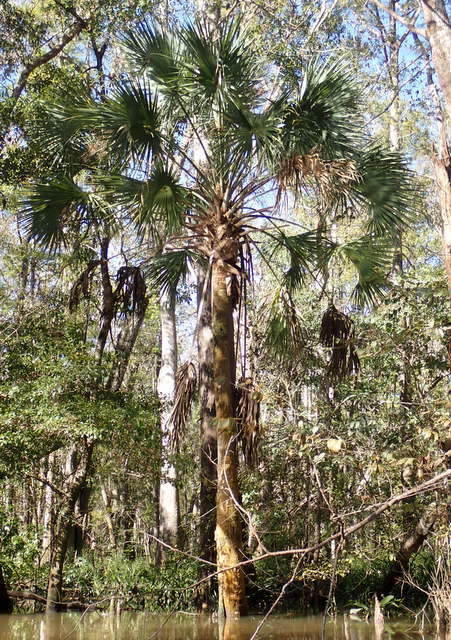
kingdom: Plantae
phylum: Tracheophyta
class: Liliopsida
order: Arecales
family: Arecaceae
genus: Sabal
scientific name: Sabal palmetto
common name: Blue palmetto
